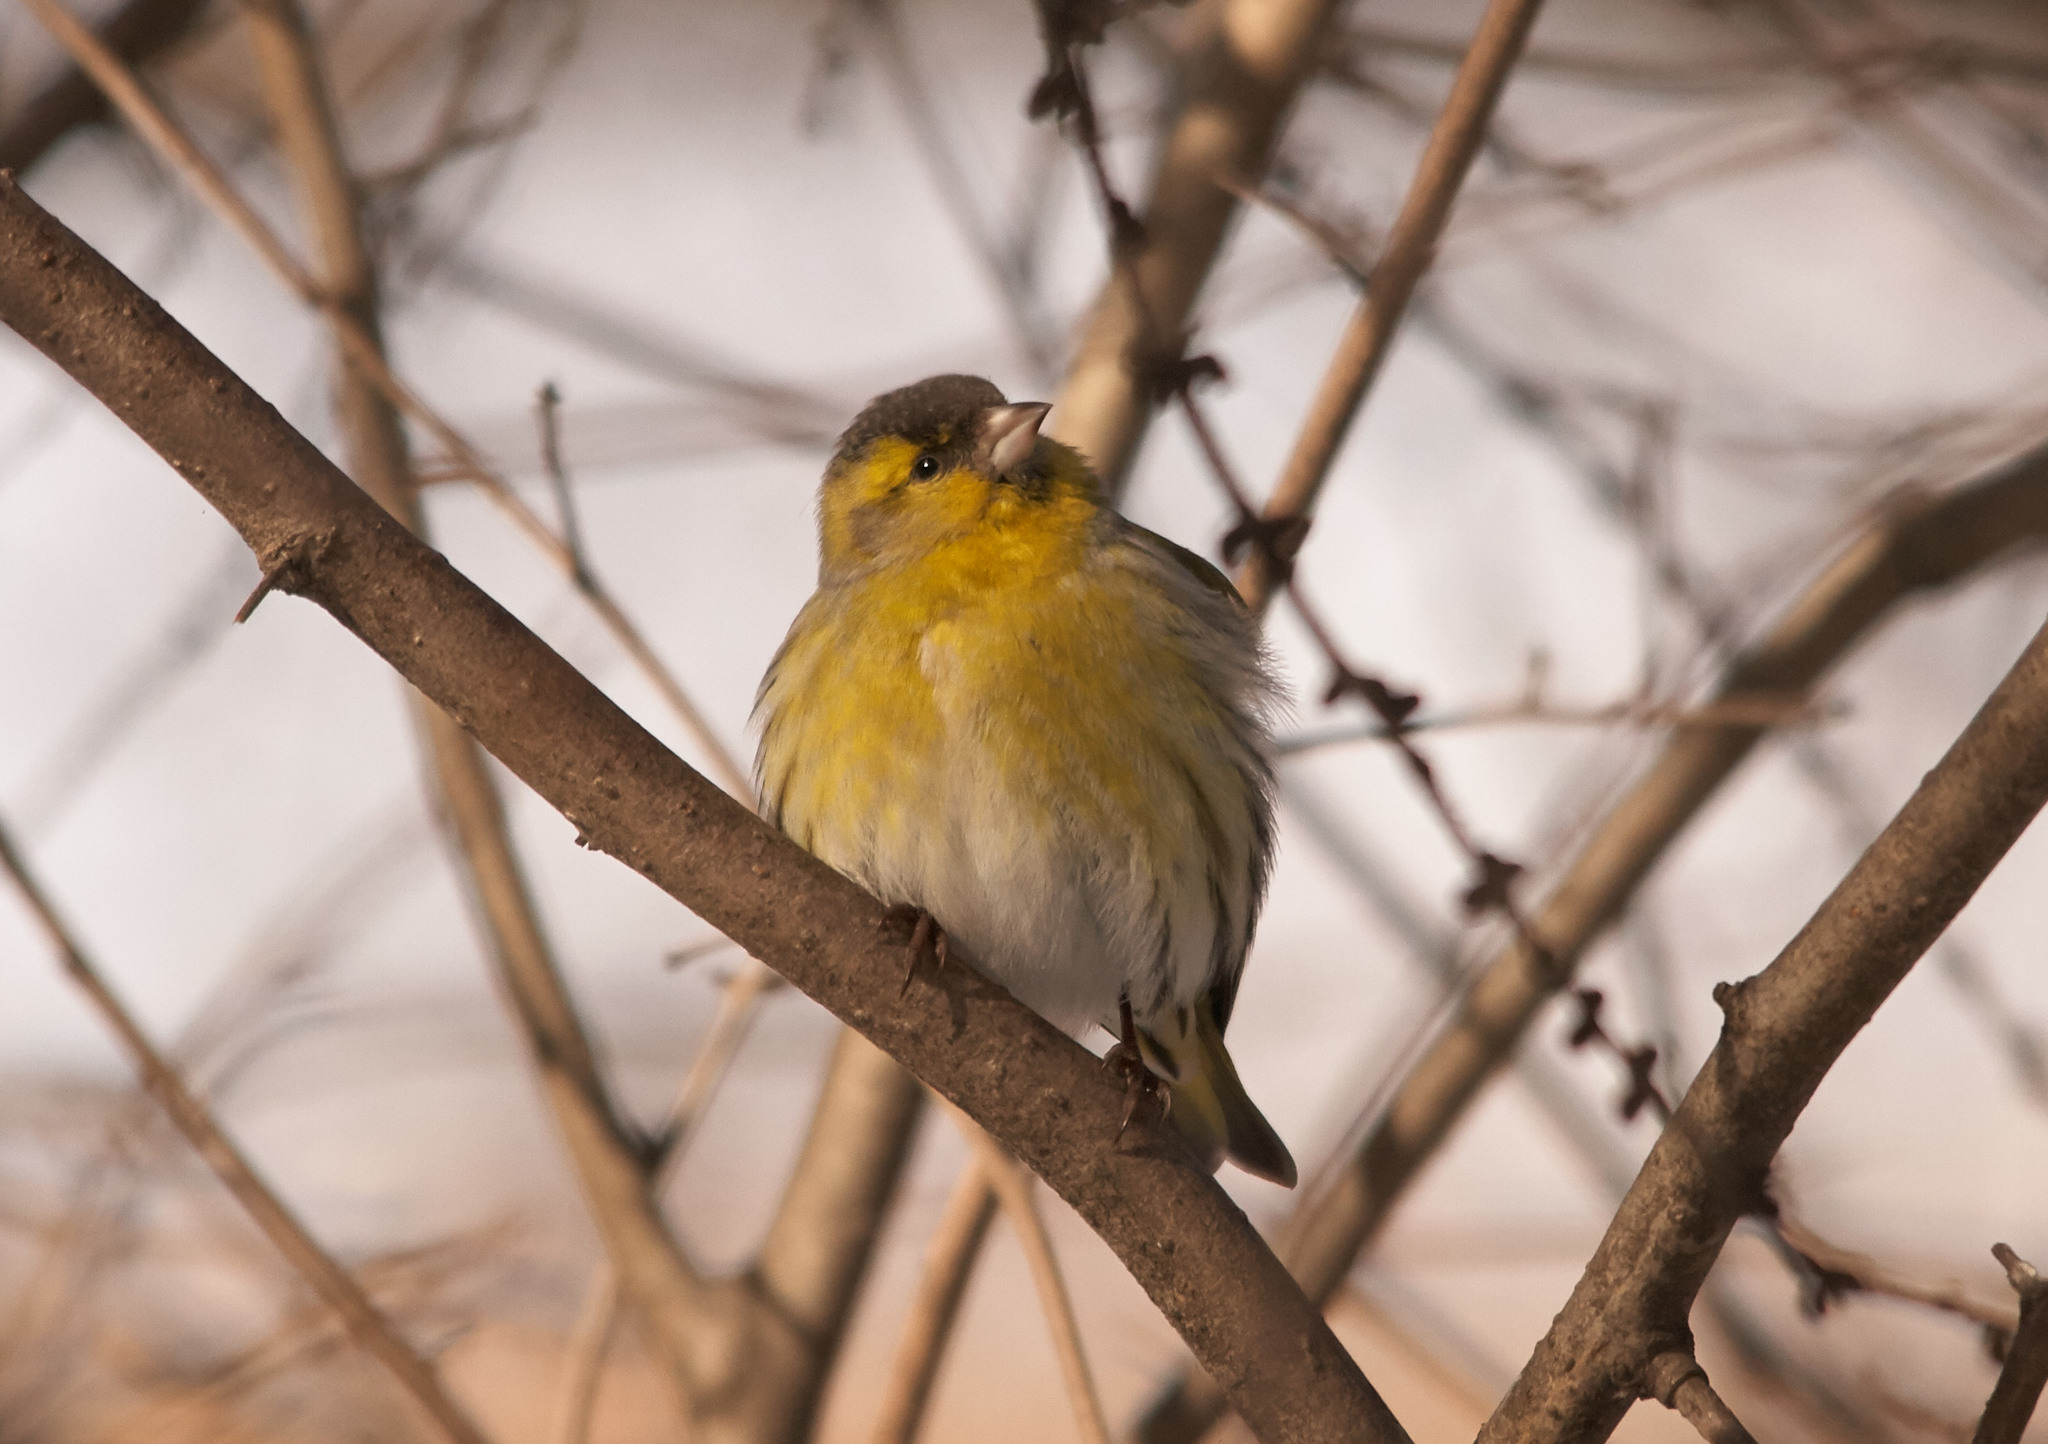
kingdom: Animalia
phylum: Chordata
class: Aves
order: Passeriformes
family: Fringillidae
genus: Spinus
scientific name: Spinus spinus
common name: Eurasian siskin
